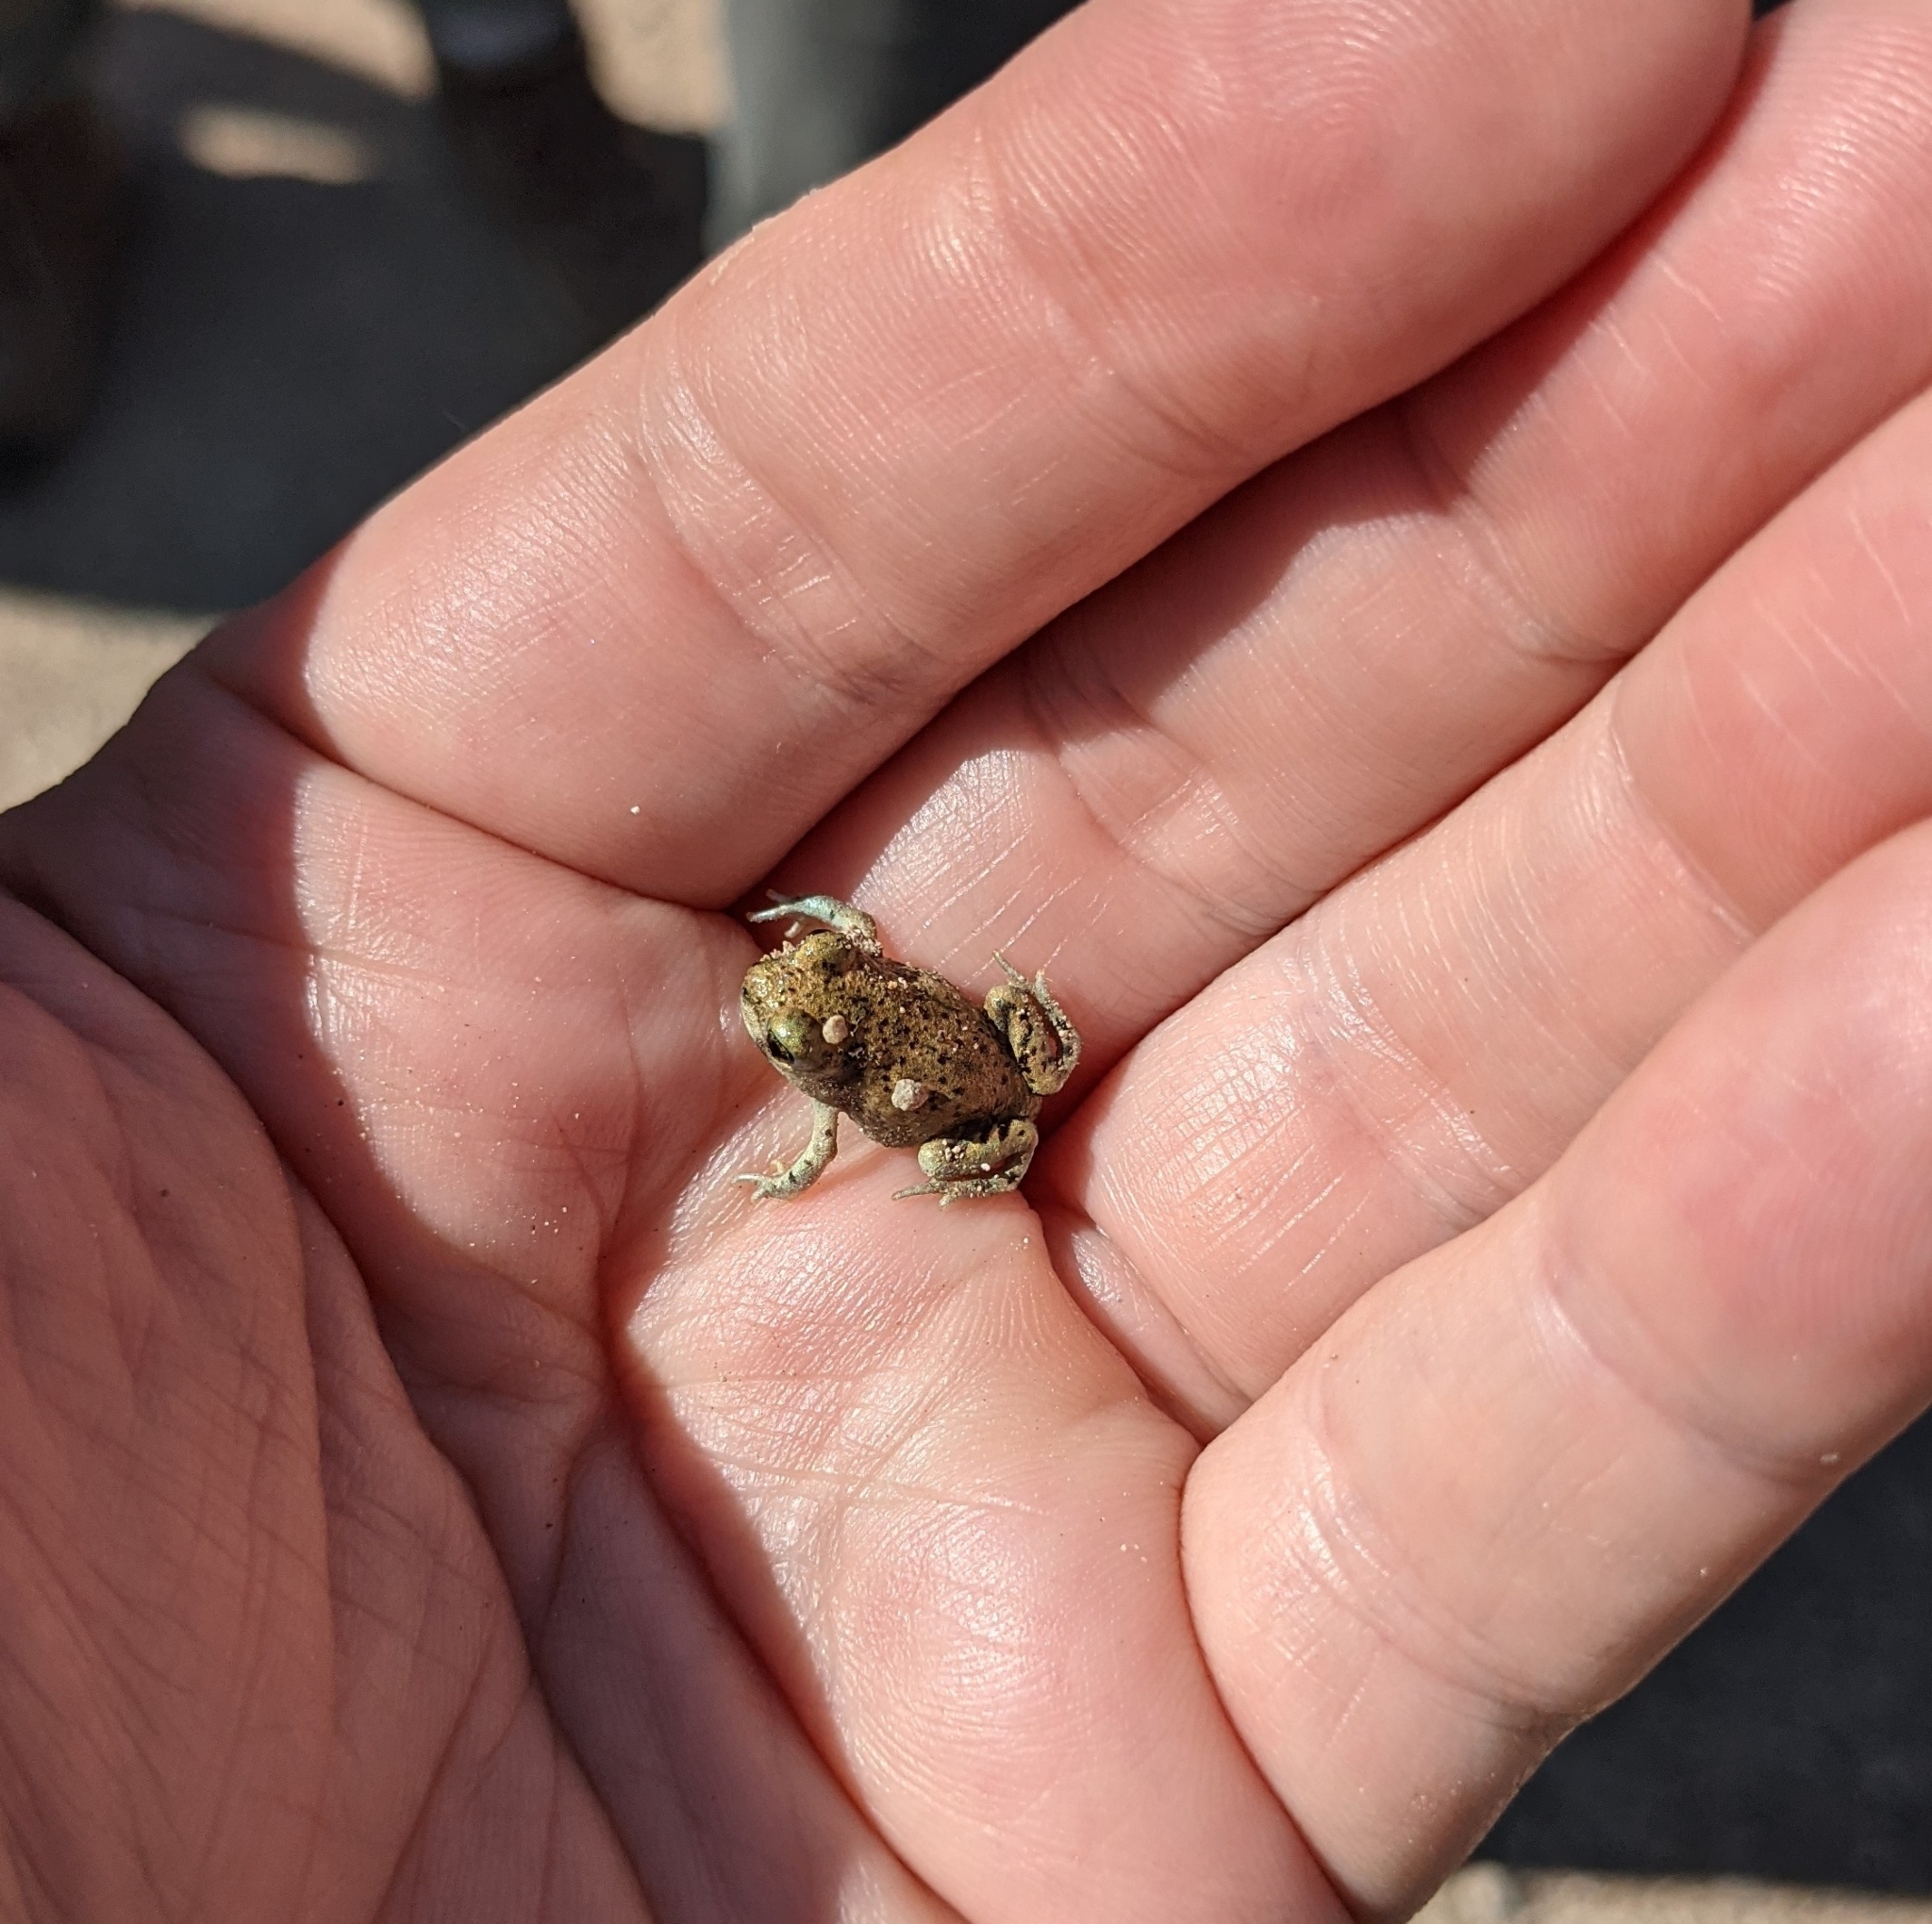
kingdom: Animalia
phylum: Chordata
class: Amphibia
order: Anura
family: Scaphiopodidae
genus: Spea
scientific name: Spea multiplicata
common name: Mexican spadefoot
